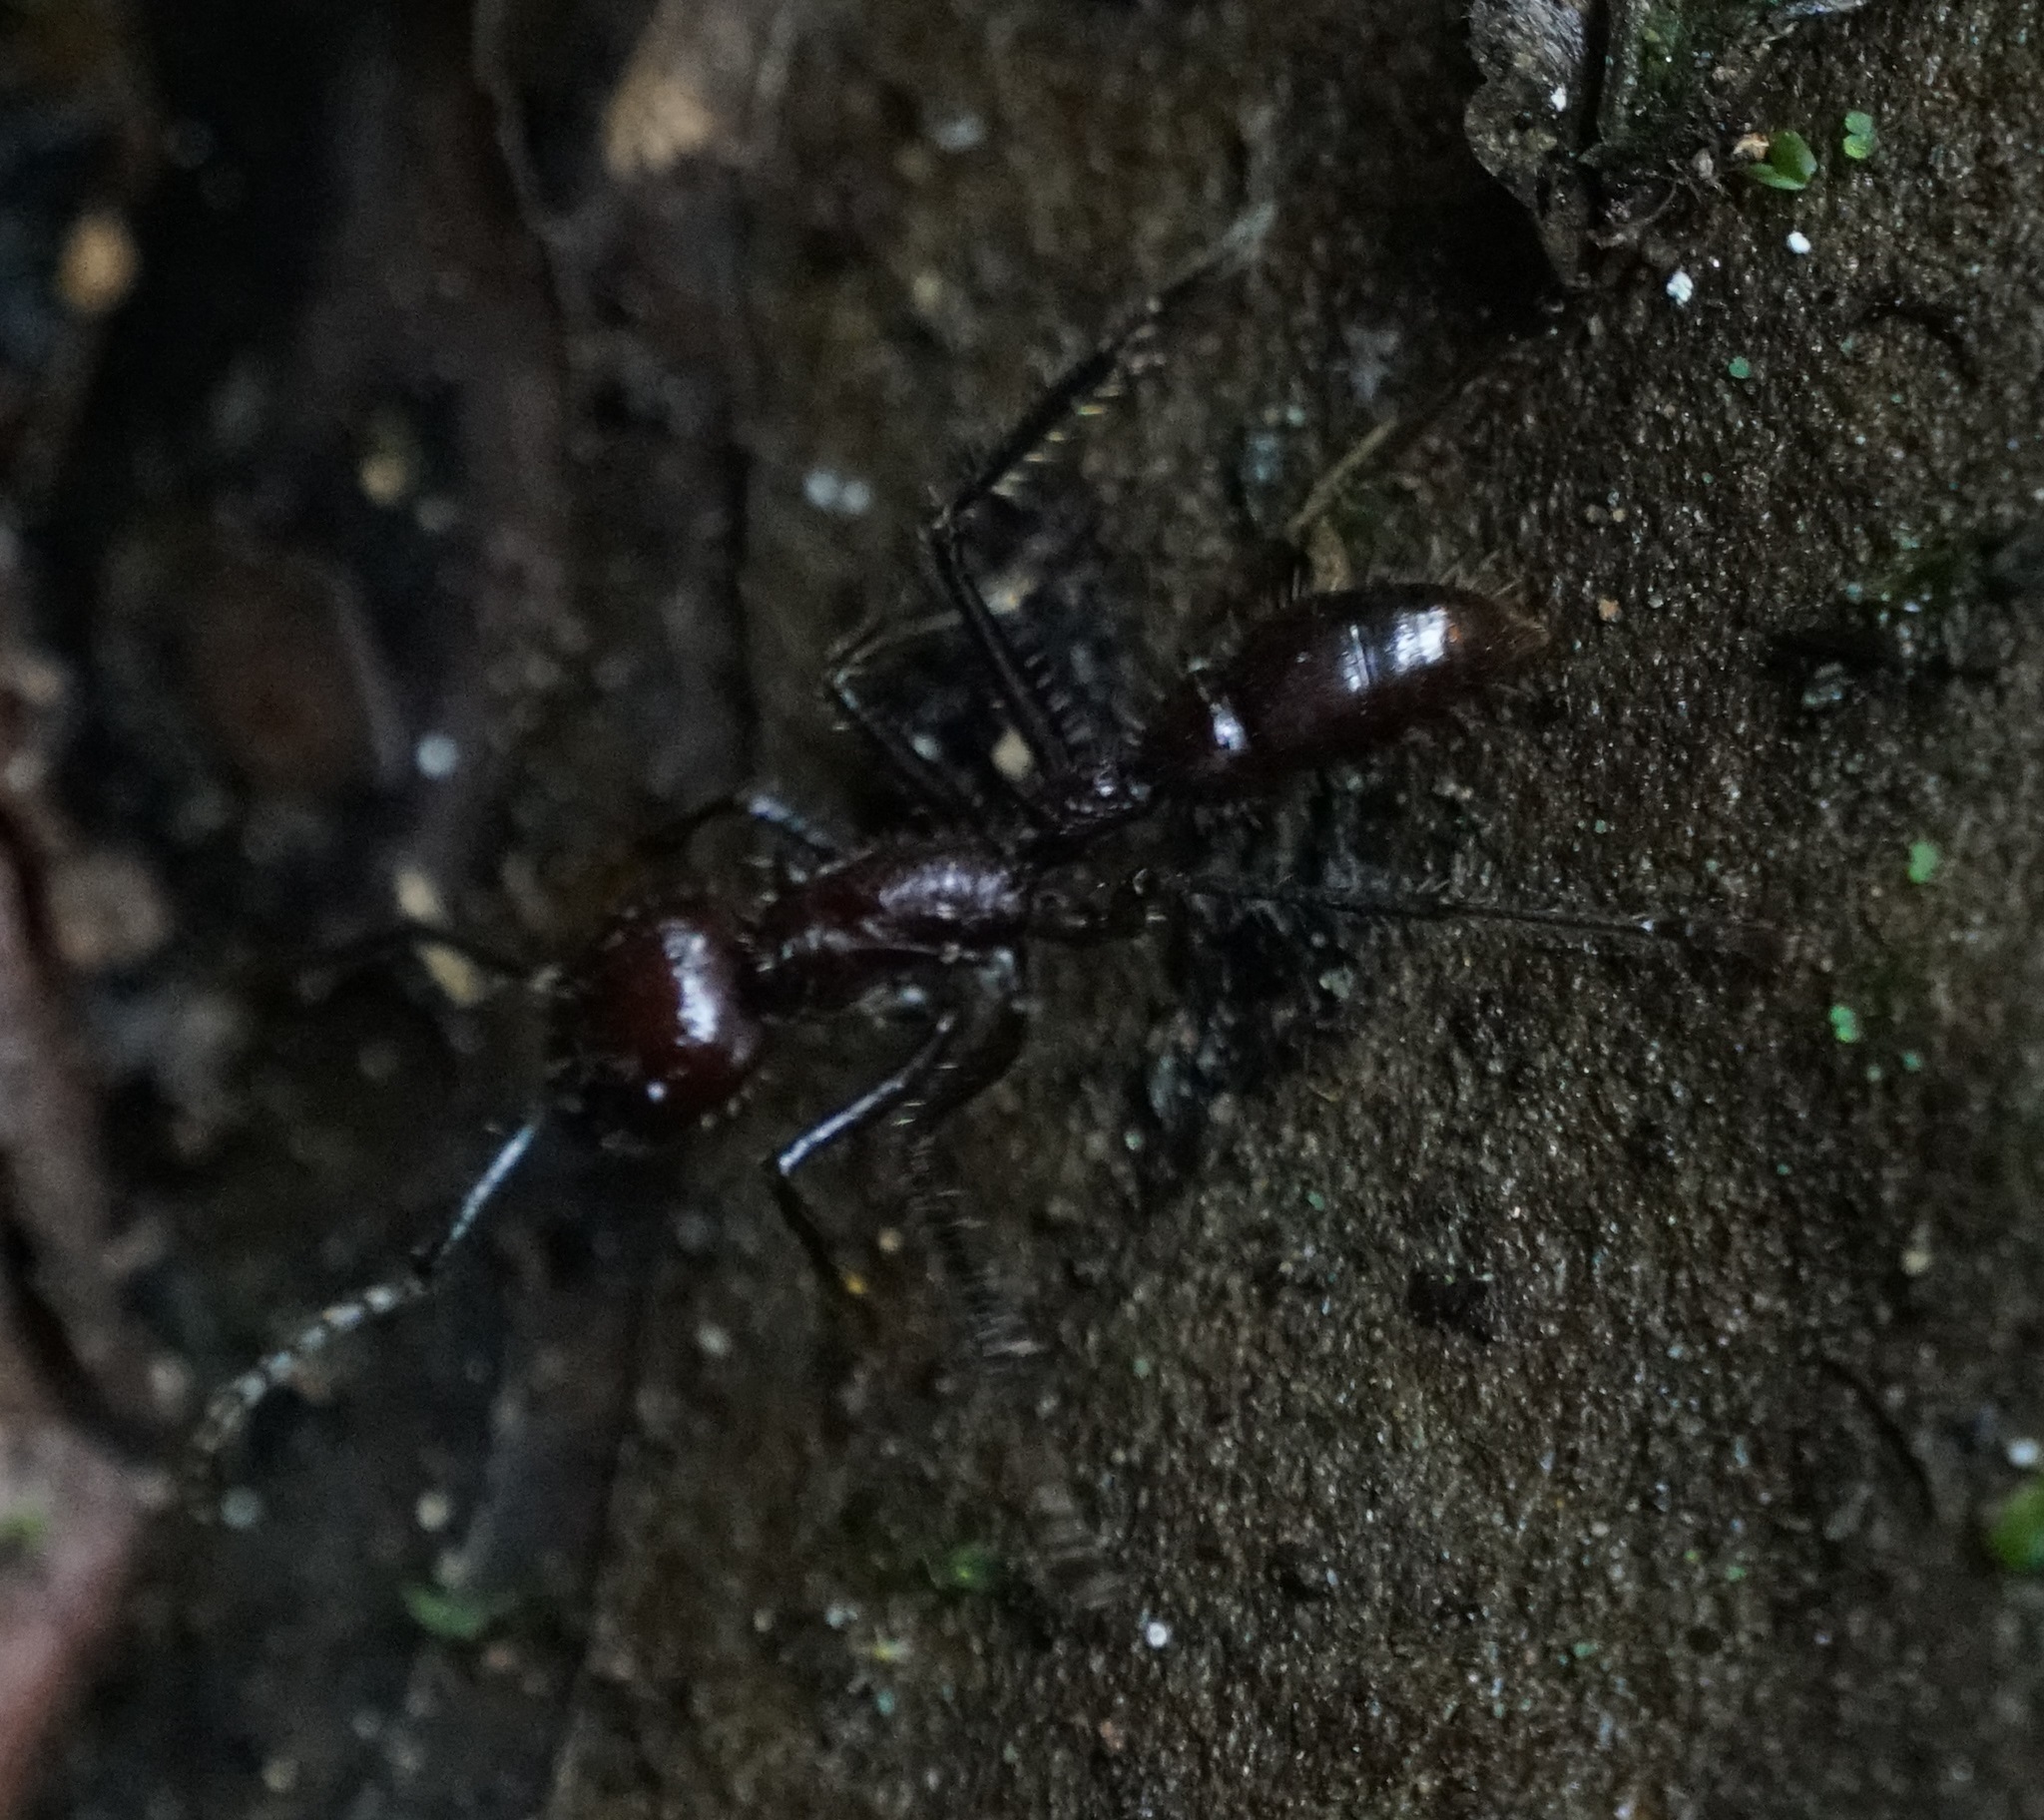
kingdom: Animalia
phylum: Arthropoda
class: Insecta
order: Hymenoptera
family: Formicidae
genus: Paraponera
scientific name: Paraponera clavata
